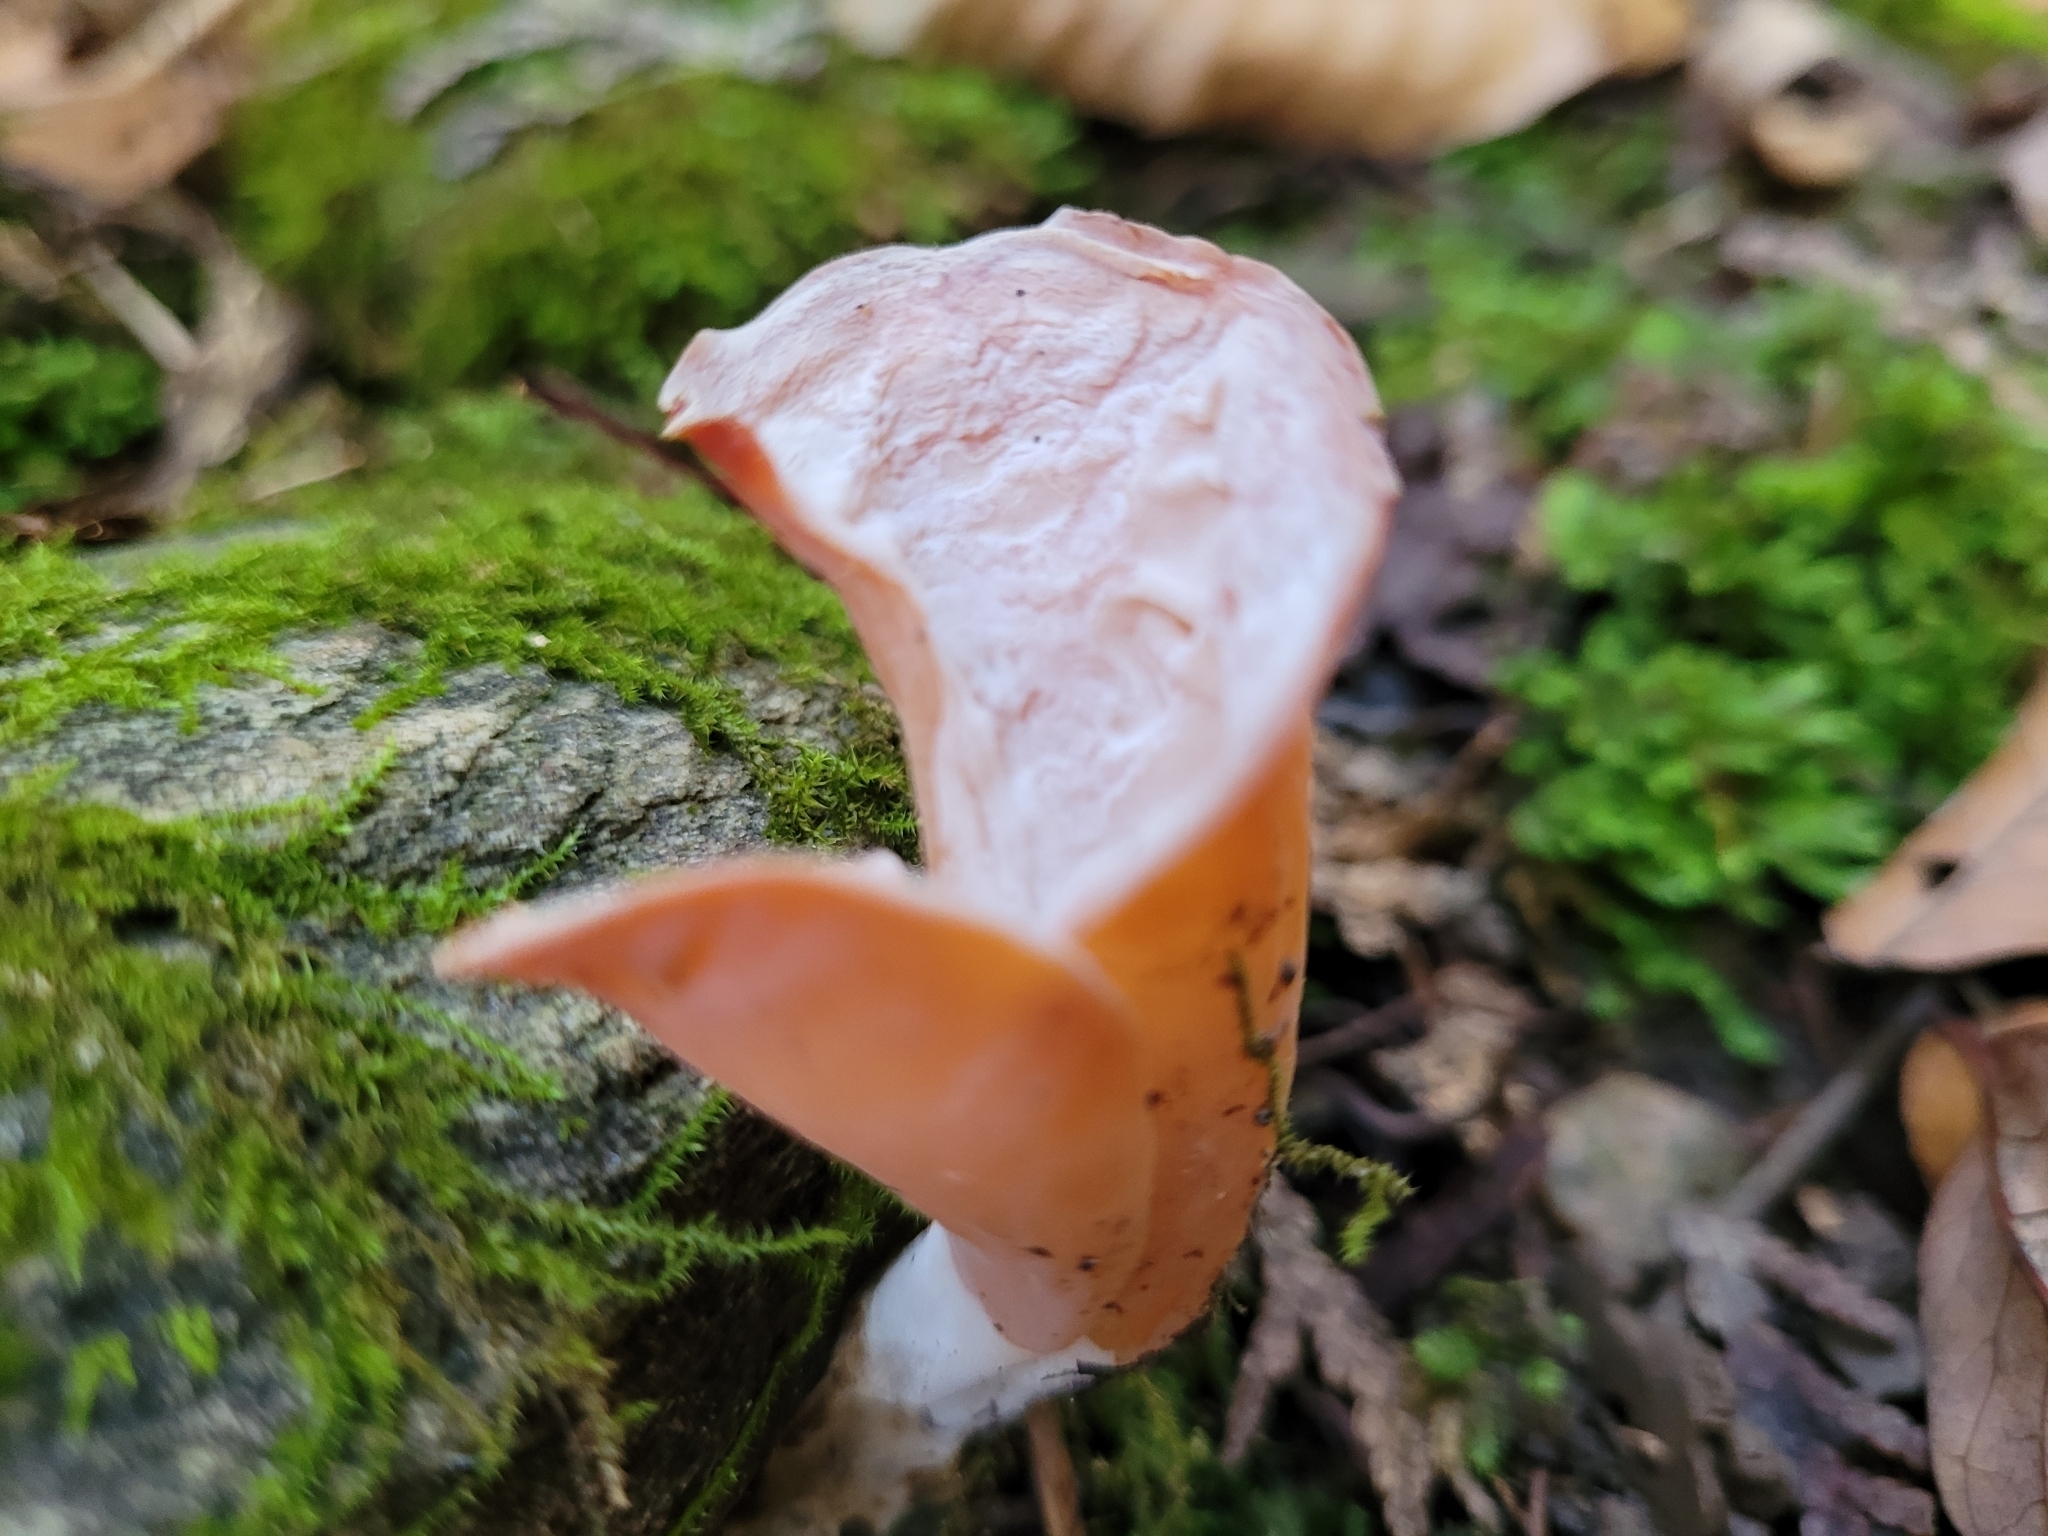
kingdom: Fungi
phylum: Basidiomycota
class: Agaricomycetes
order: Auriculariales
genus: Guepinia
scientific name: Guepinia helvelloides
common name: Salmon salad
